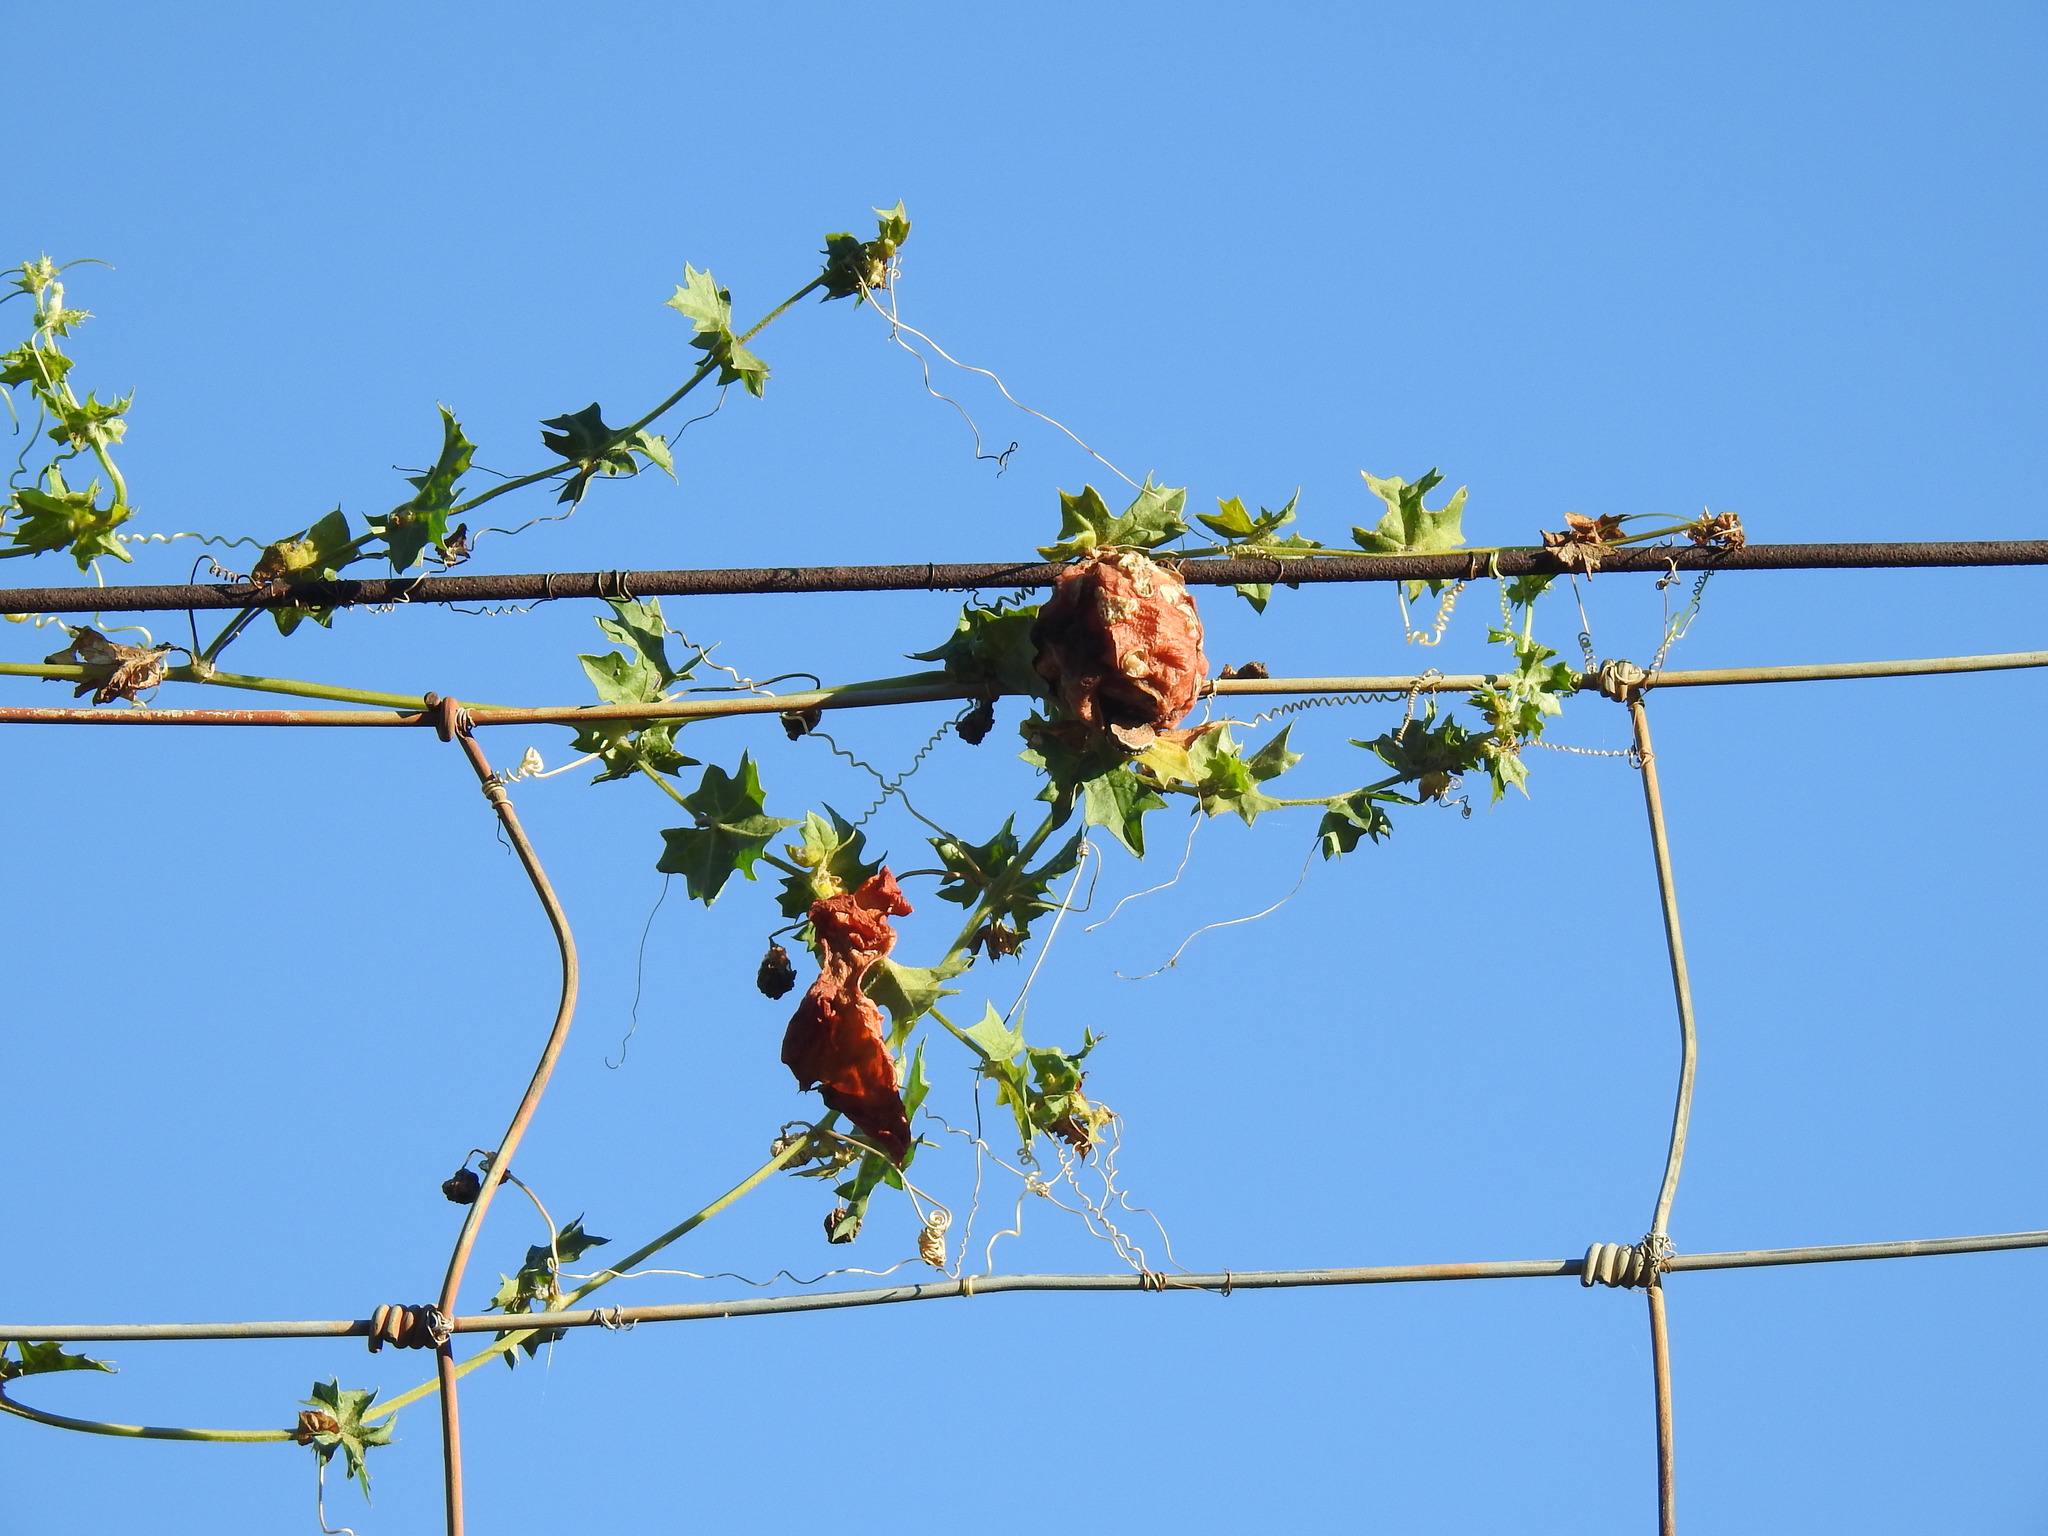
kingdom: Plantae
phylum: Tracheophyta
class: Magnoliopsida
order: Cucurbitales
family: Cucurbitaceae
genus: Momordica
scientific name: Momordica balsamina
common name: Southern balsampear
